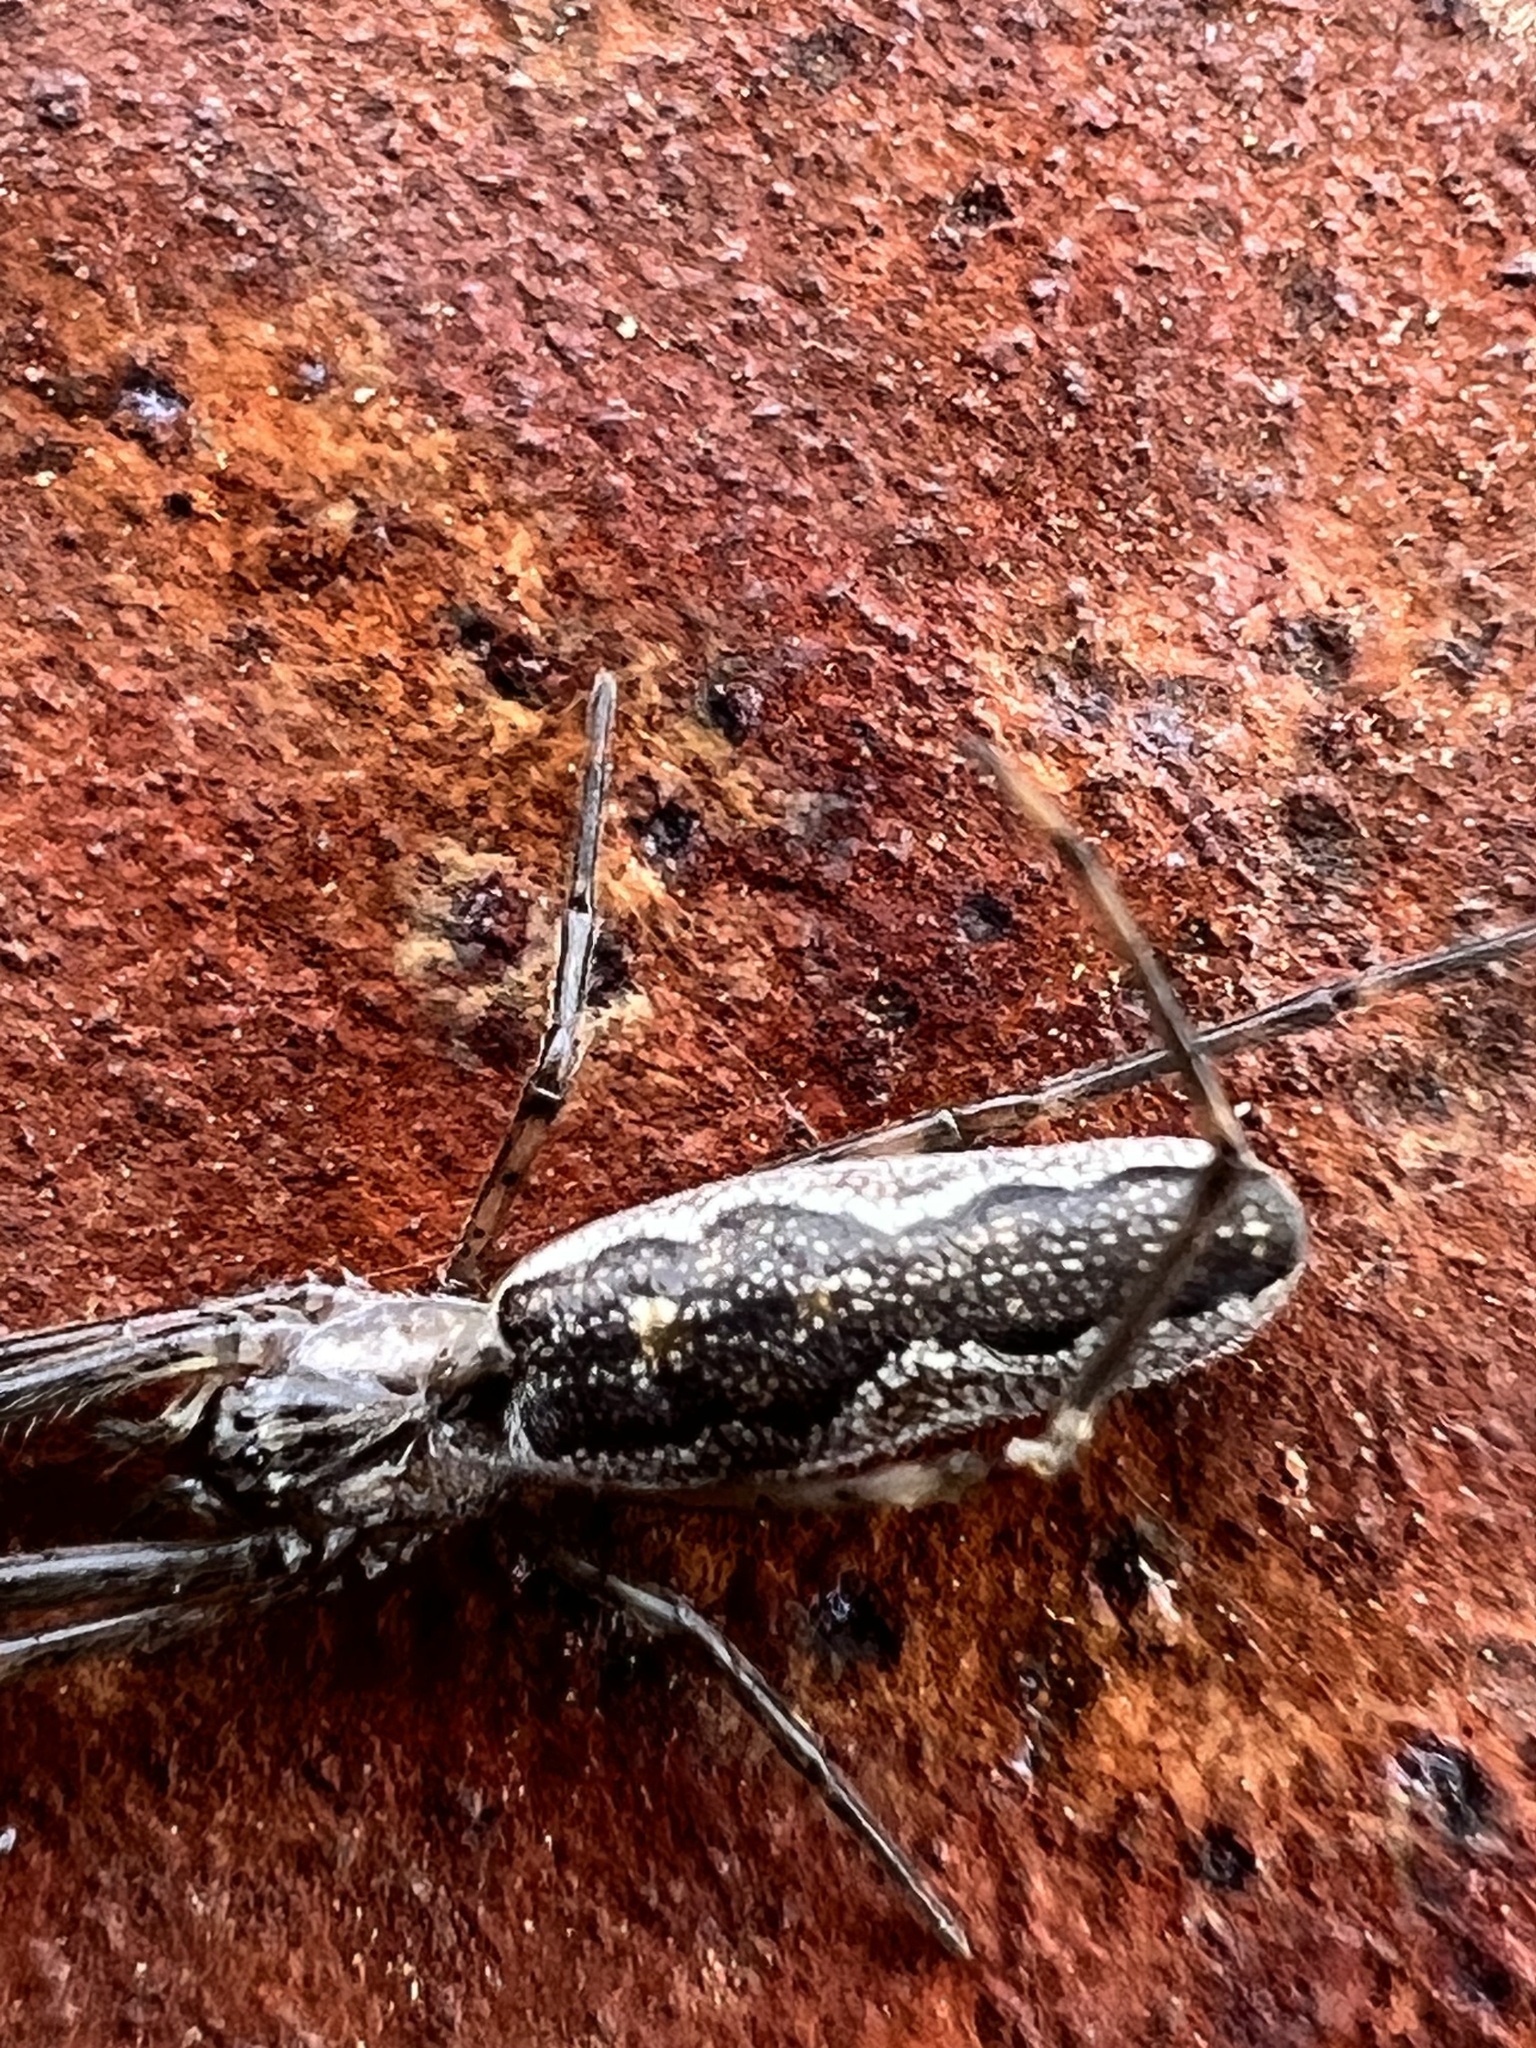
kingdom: Animalia
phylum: Arthropoda
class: Arachnida
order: Araneae
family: Tetragnathidae
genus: Tetragnatha
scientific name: Tetragnatha versicolor
